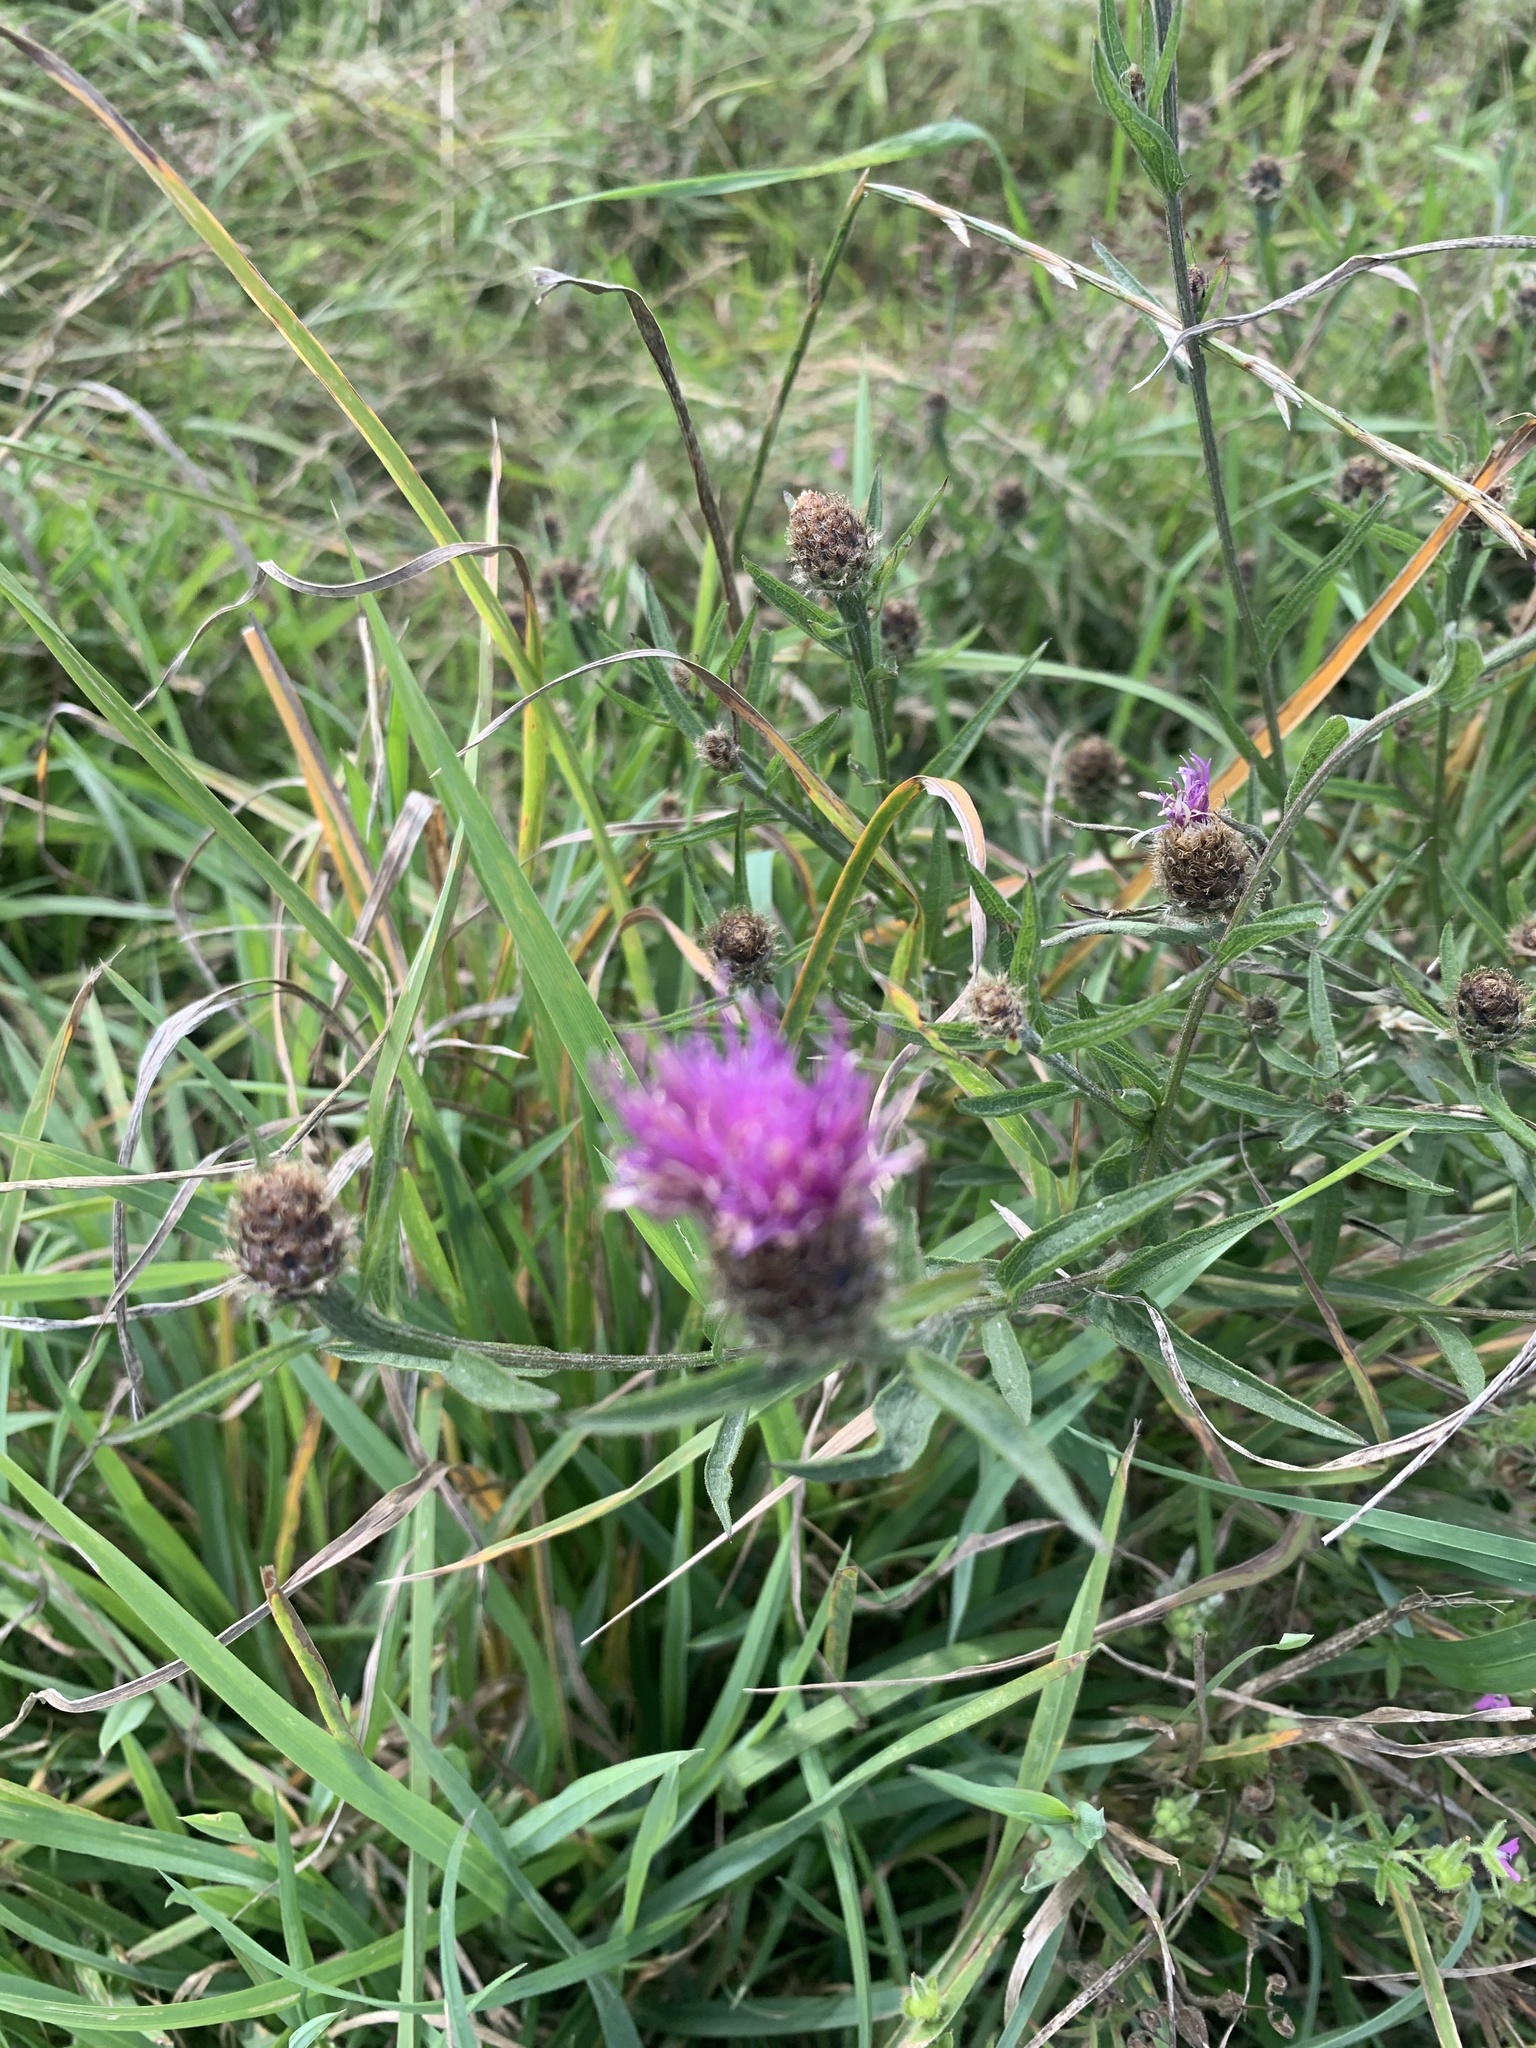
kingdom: Plantae
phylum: Tracheophyta
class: Magnoliopsida
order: Asterales
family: Asteraceae
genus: Centaurea
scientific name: Centaurea nigra
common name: Lesser knapweed
